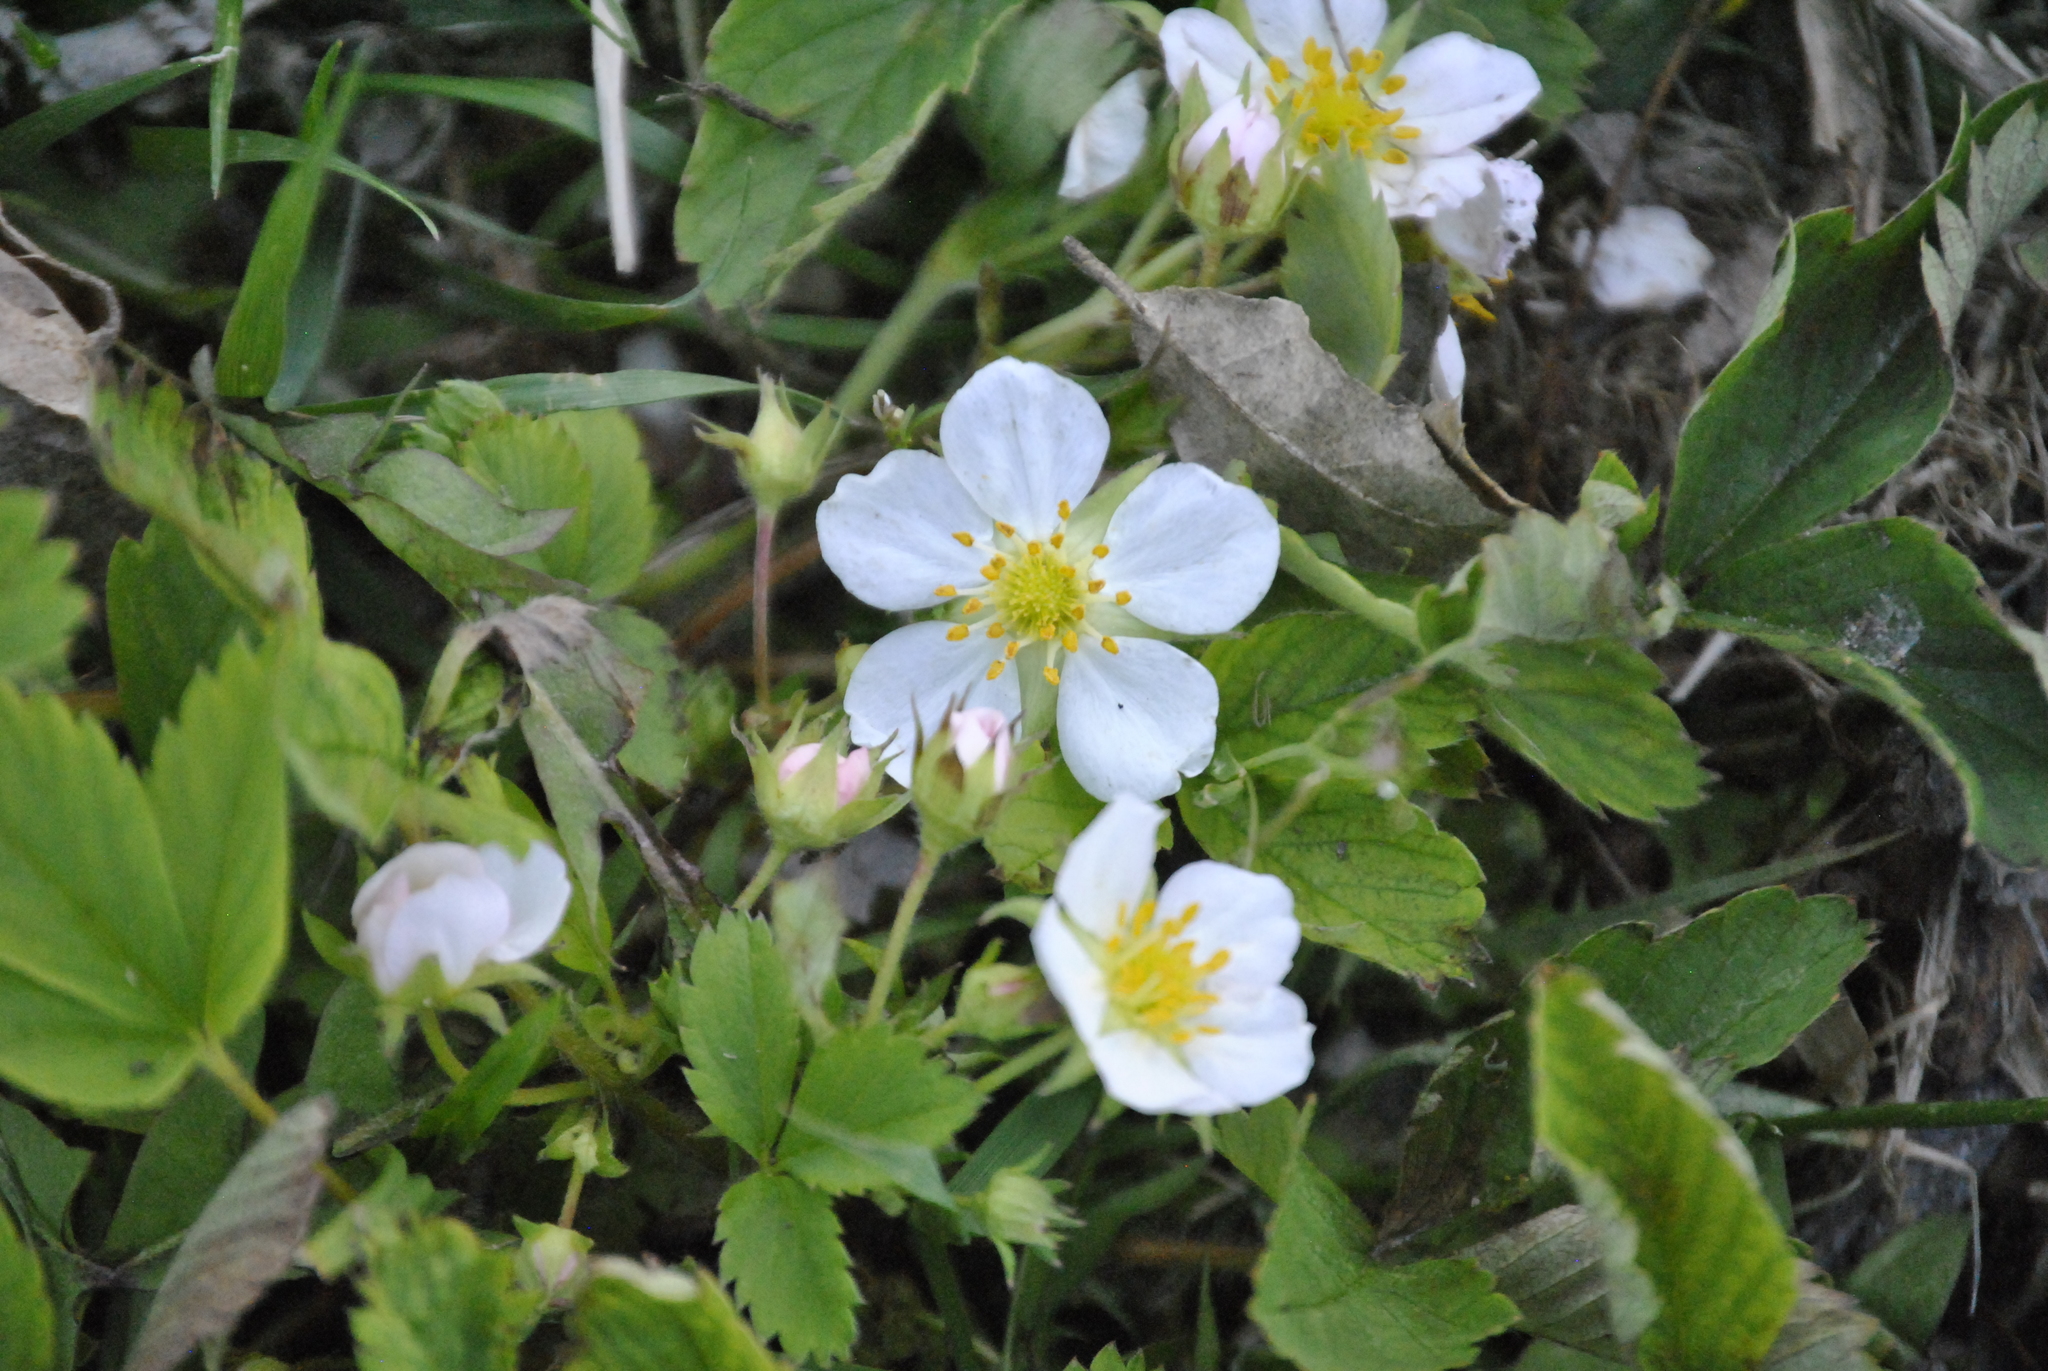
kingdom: Plantae
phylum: Tracheophyta
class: Magnoliopsida
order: Rosales
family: Rosaceae
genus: Fragaria
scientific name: Fragaria virginiana
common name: Thickleaved wild strawberry
